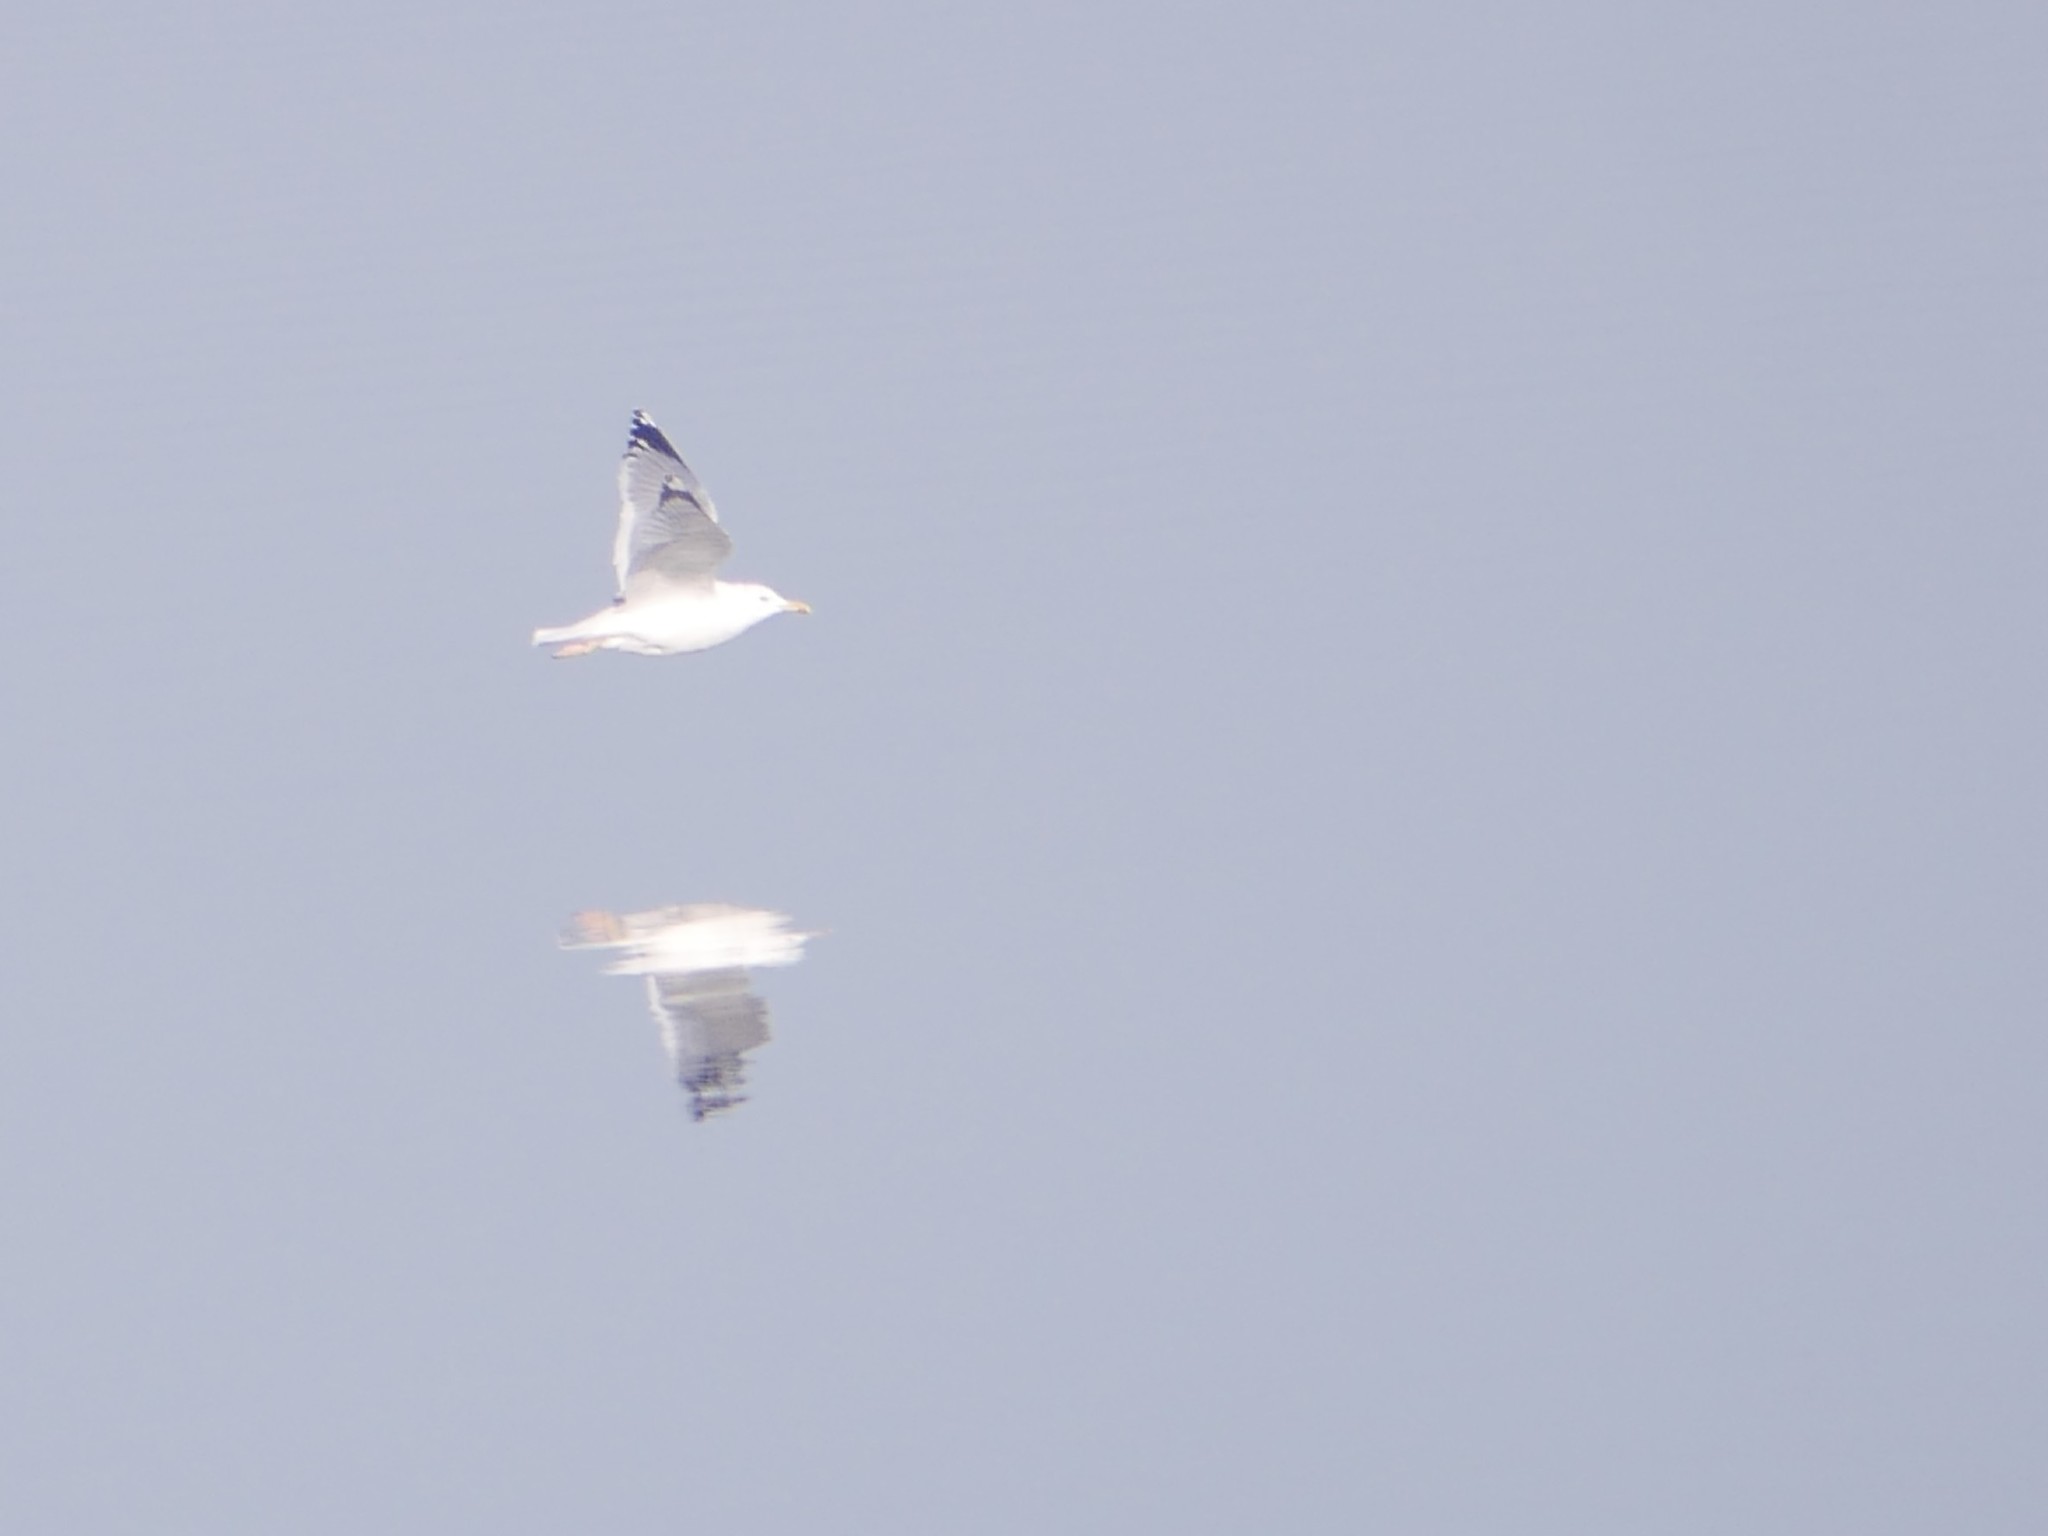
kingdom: Animalia
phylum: Chordata
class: Aves
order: Charadriiformes
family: Laridae
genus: Larus
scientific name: Larus cachinnans
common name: Caspian gull
